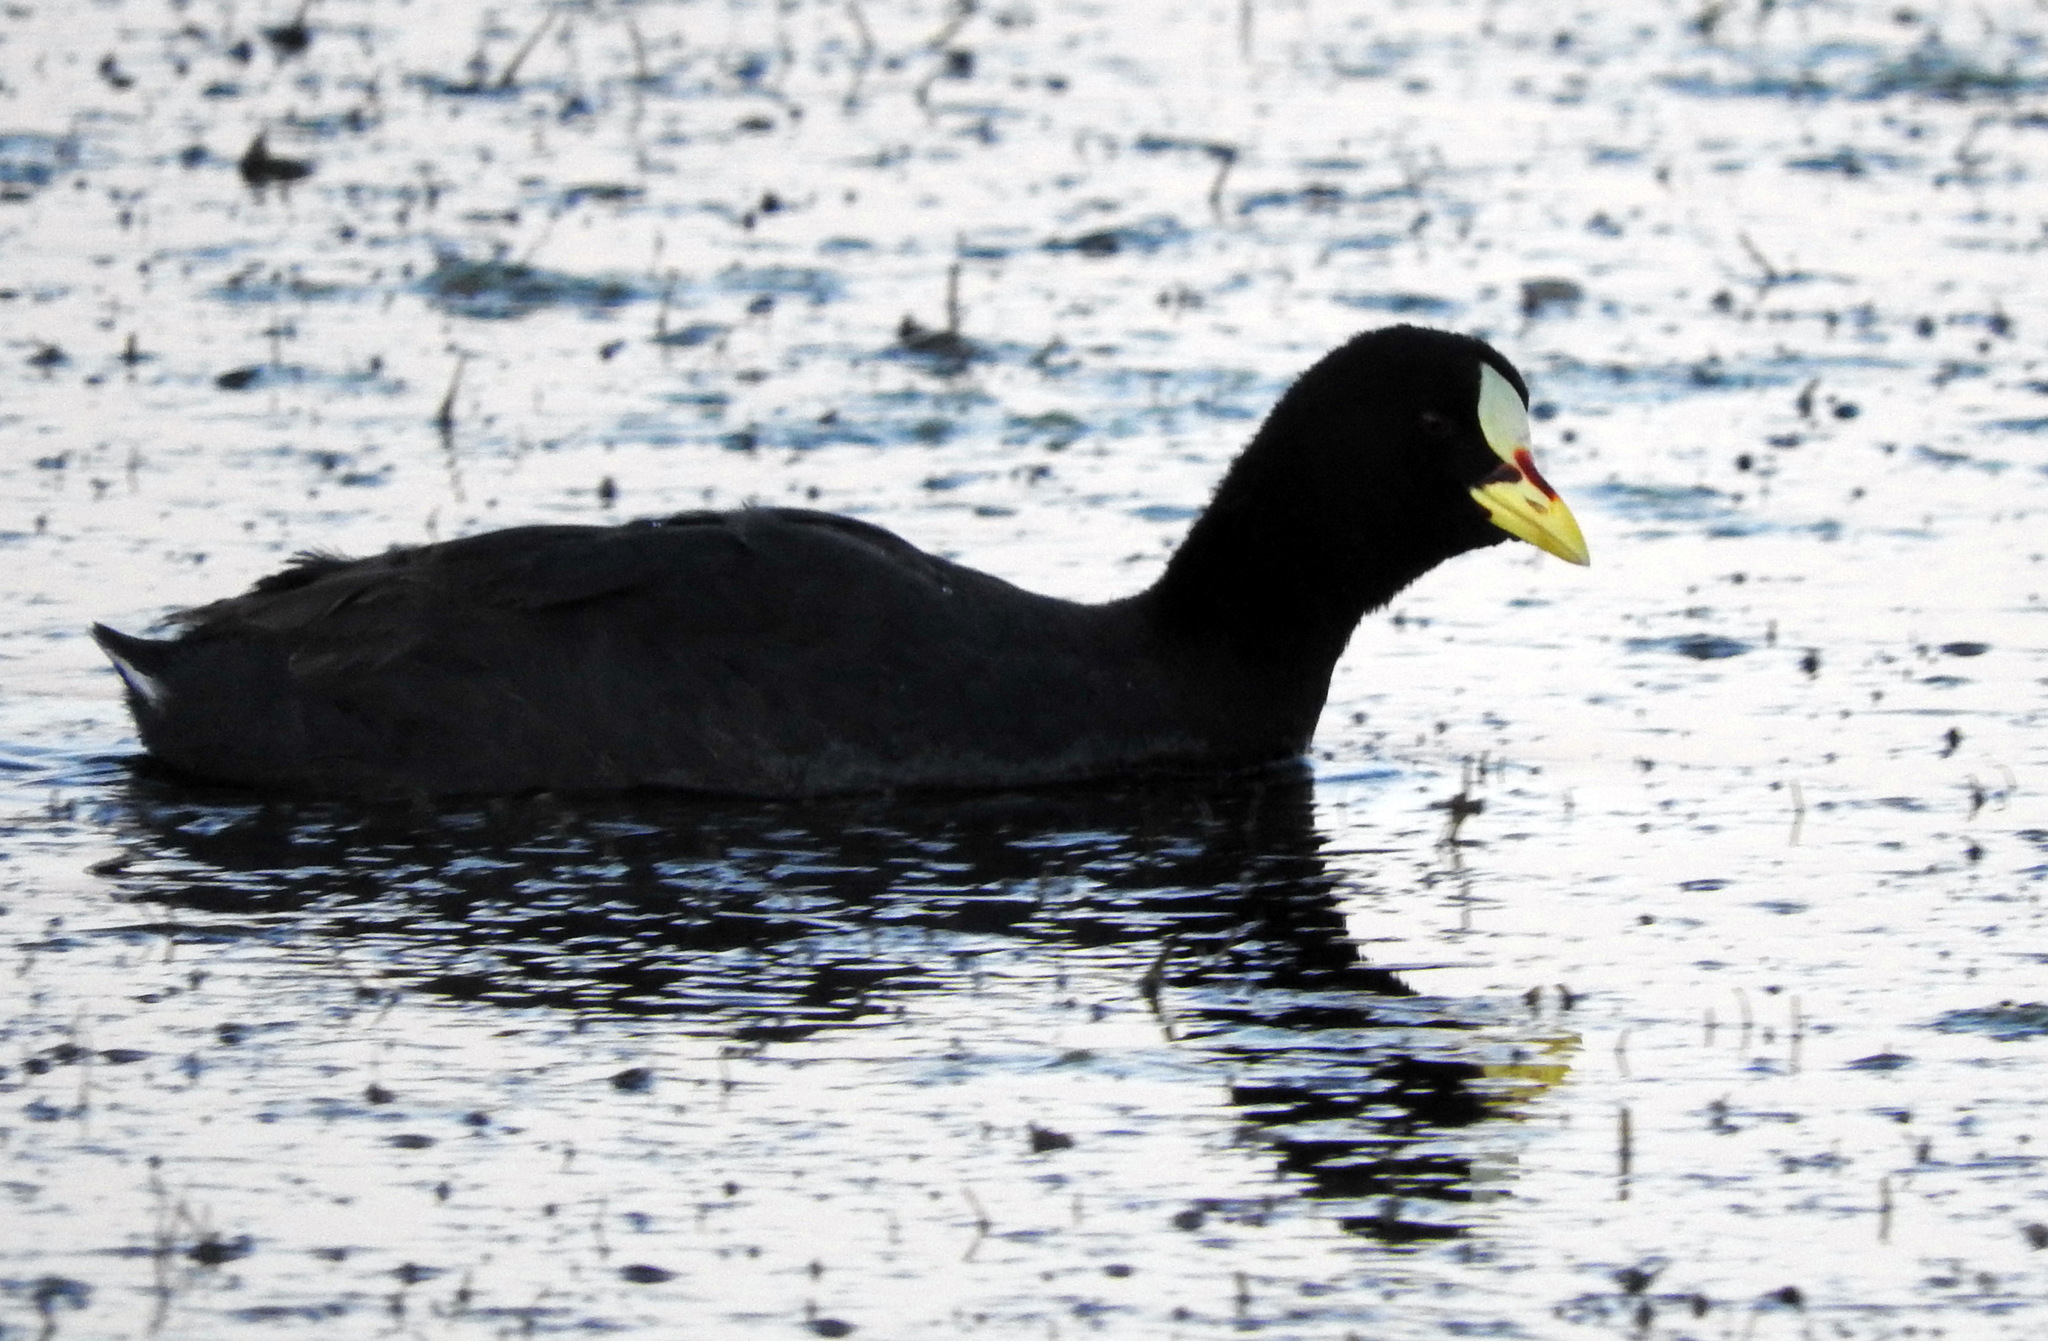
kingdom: Animalia
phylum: Chordata
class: Aves
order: Gruiformes
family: Rallidae
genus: Fulica
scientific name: Fulica armillata
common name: Red-gartered coot
